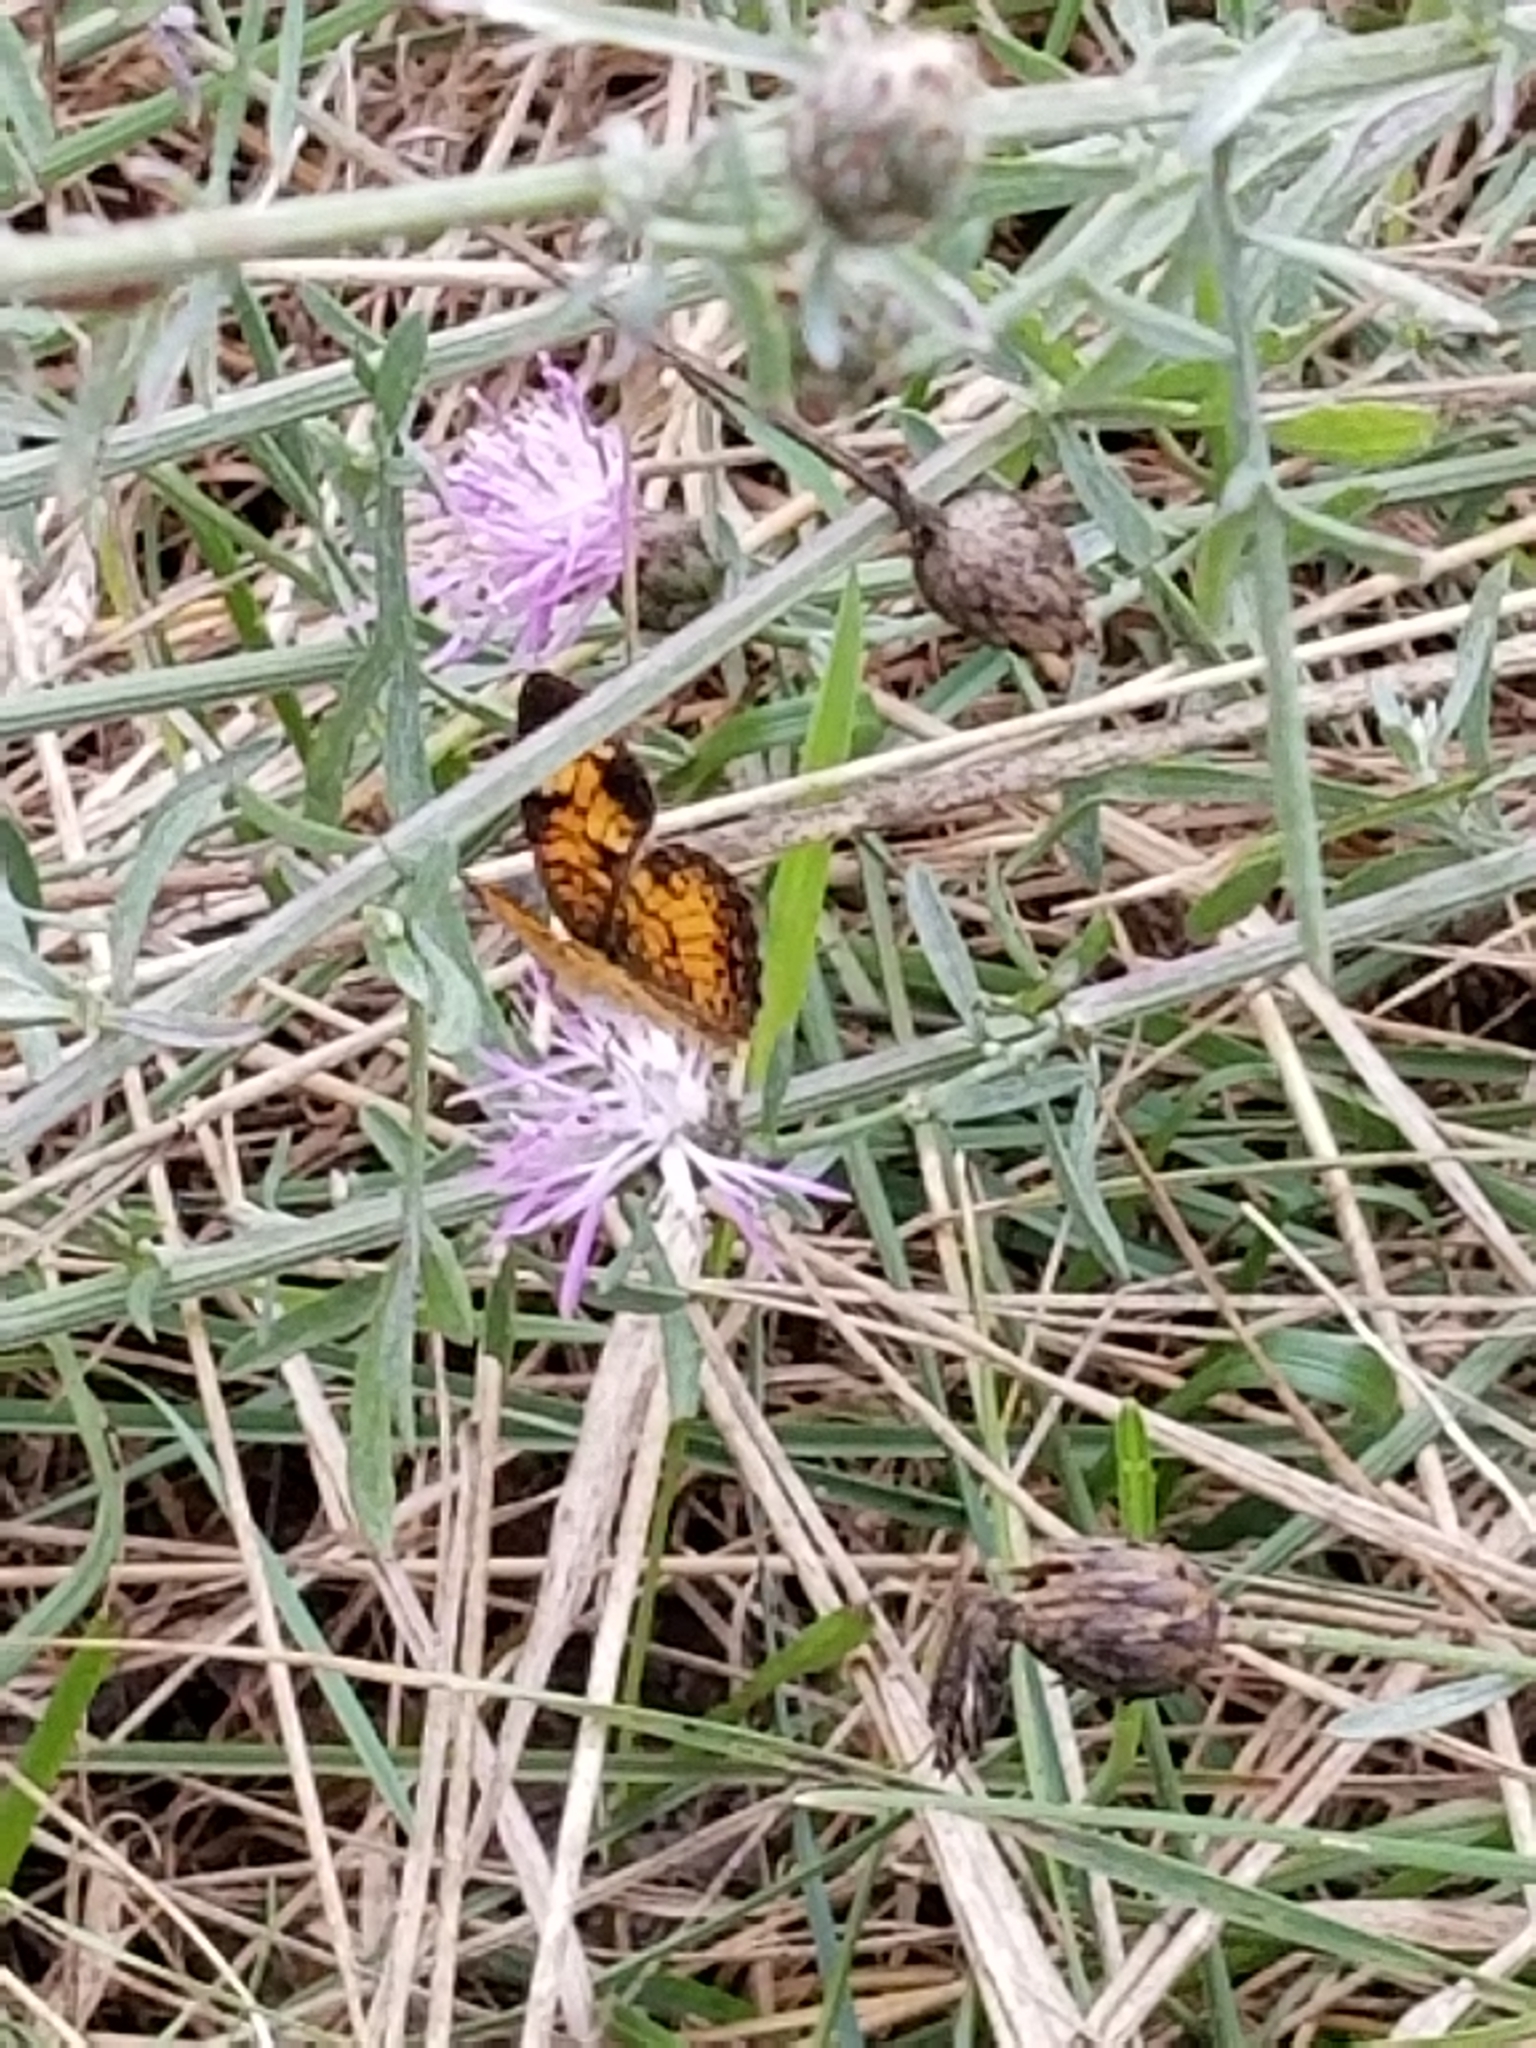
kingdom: Animalia
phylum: Arthropoda
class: Insecta
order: Lepidoptera
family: Nymphalidae
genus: Phyciodes
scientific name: Phyciodes tharos
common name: Pearl crescent
